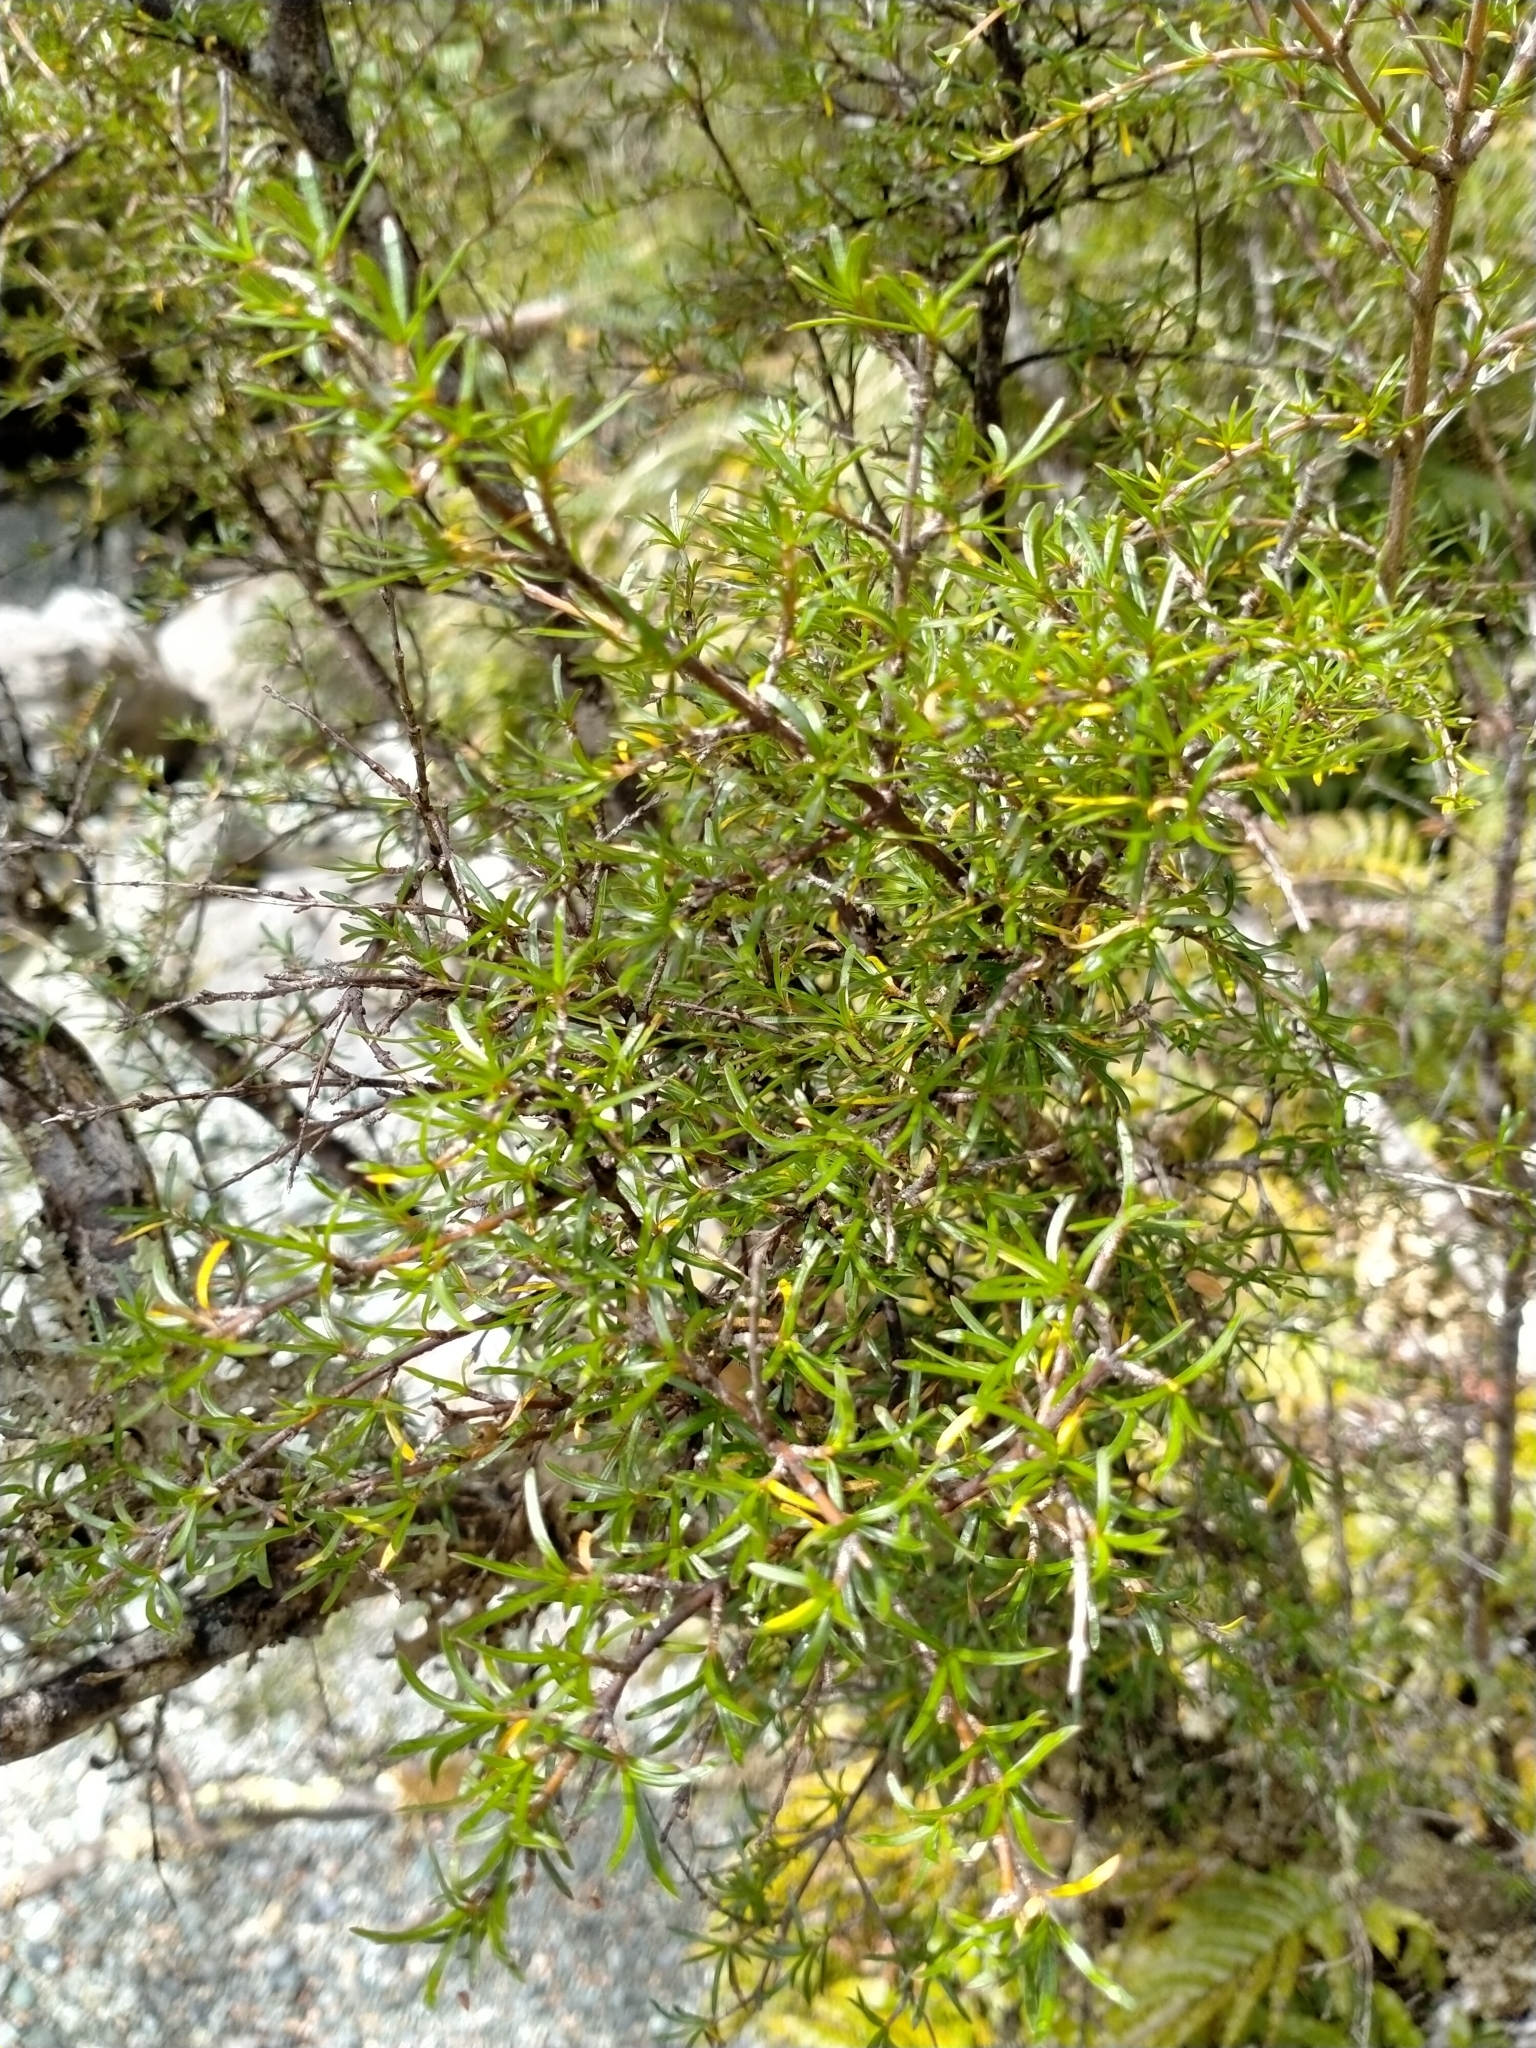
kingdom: Plantae
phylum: Tracheophyta
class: Magnoliopsida
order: Gentianales
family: Rubiaceae
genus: Coprosma
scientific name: Coprosma rugosa
